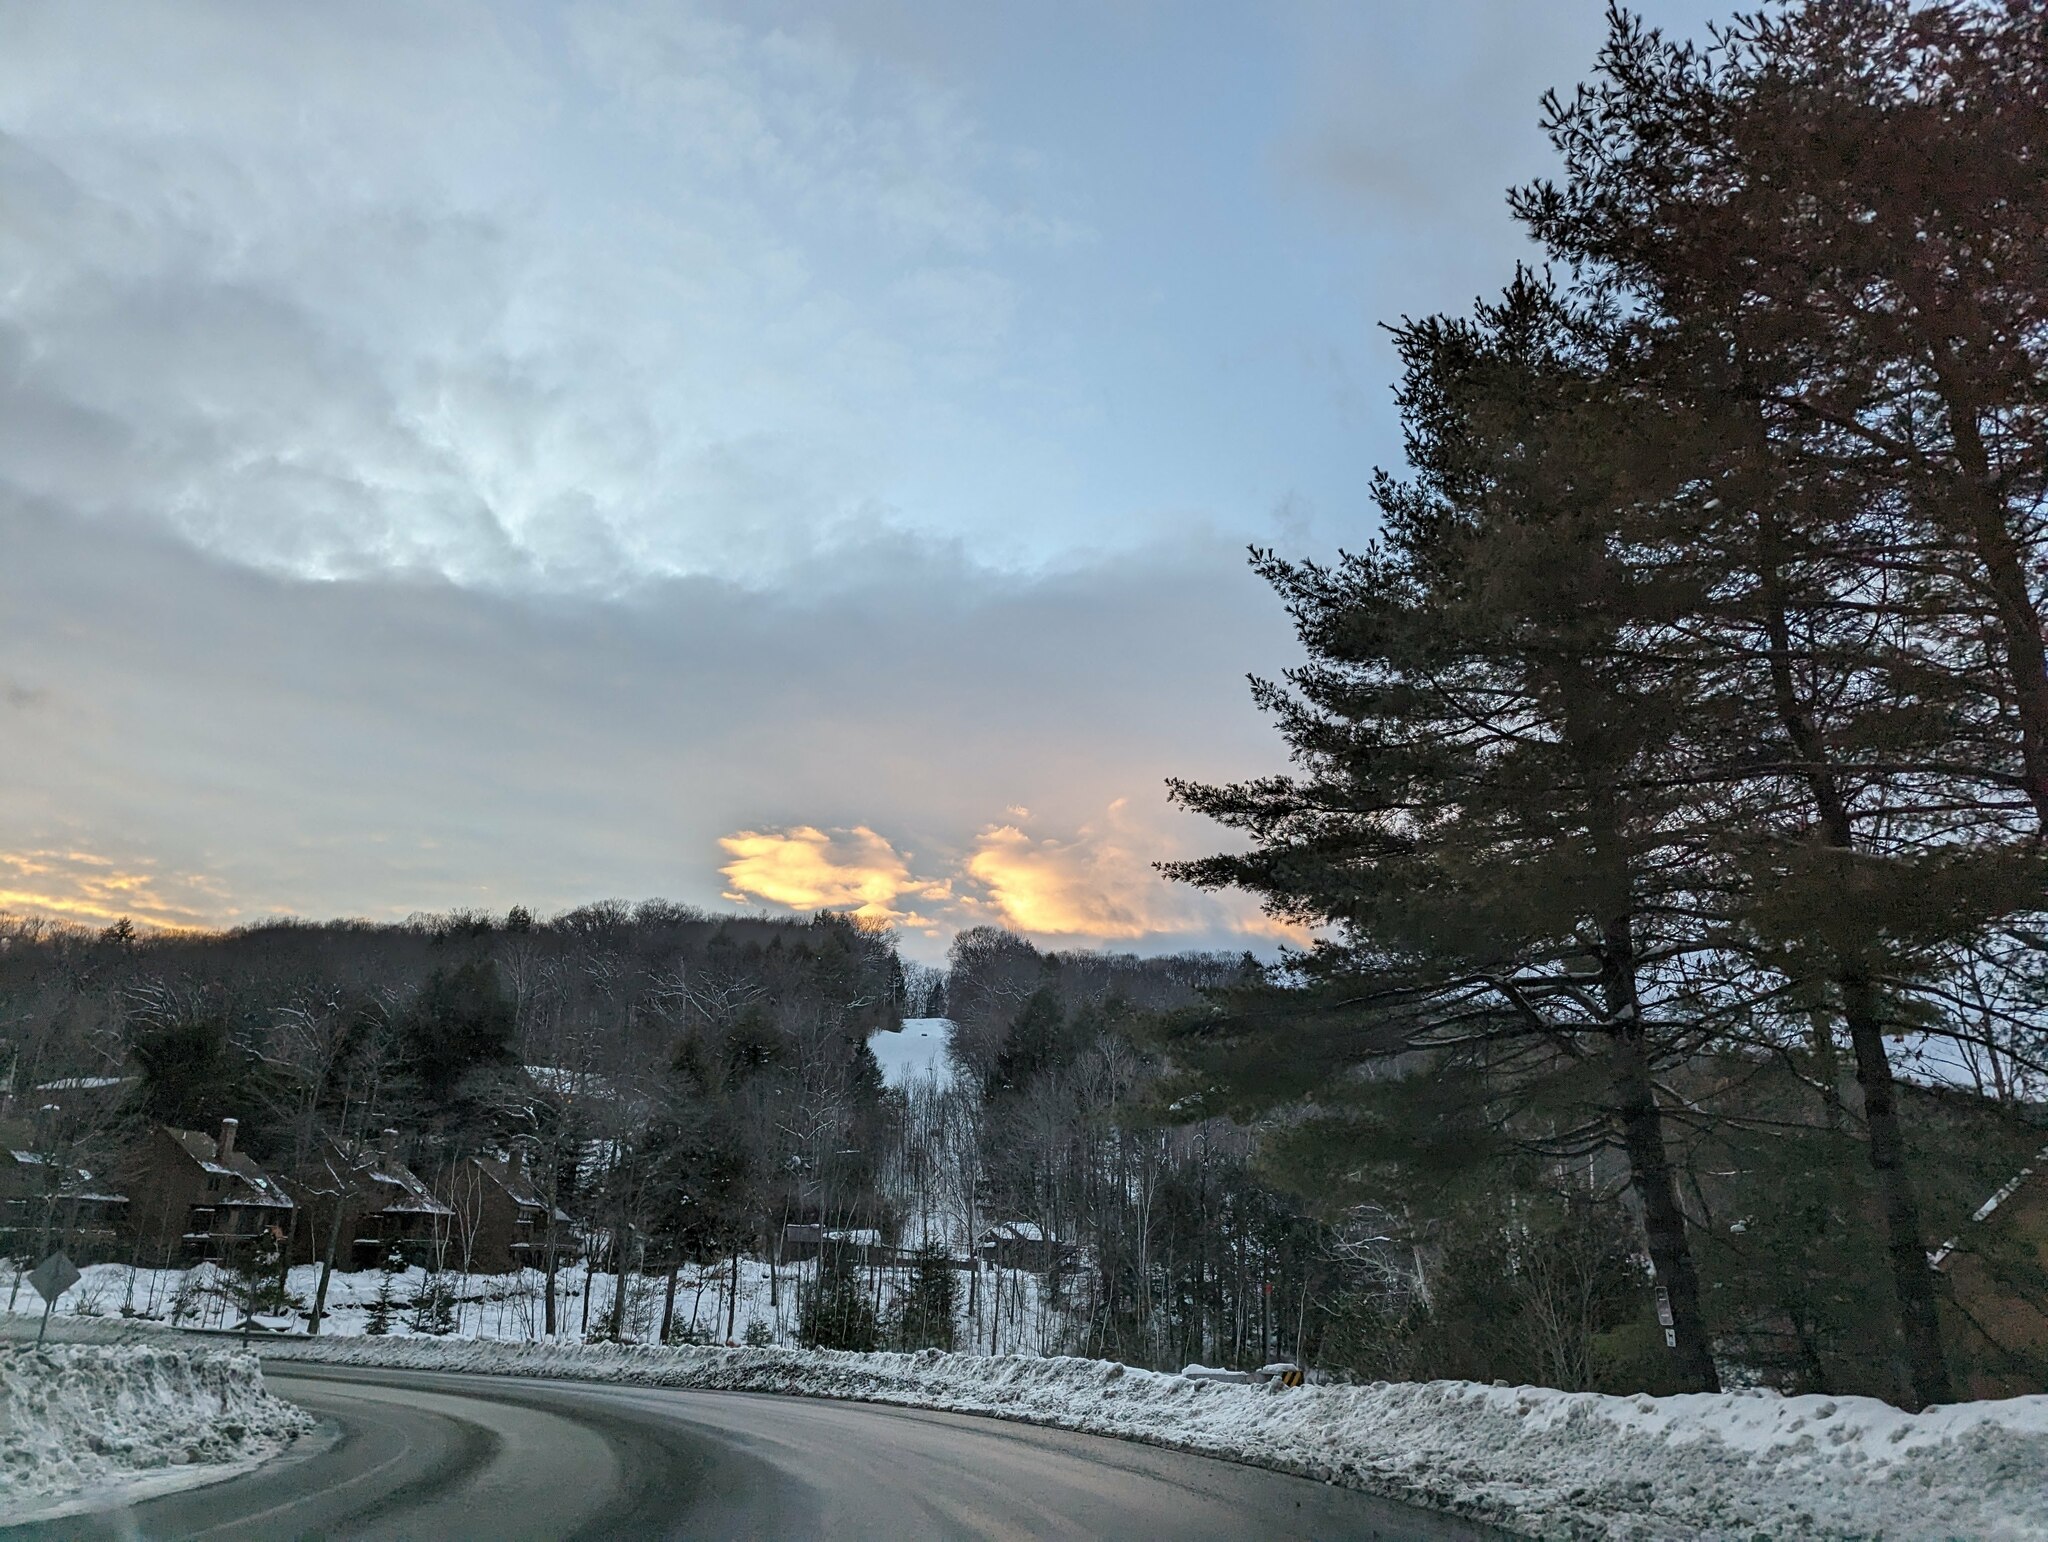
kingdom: Plantae
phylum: Tracheophyta
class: Pinopsida
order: Pinales
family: Pinaceae
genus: Pinus
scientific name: Pinus strobus
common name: Weymouth pine
